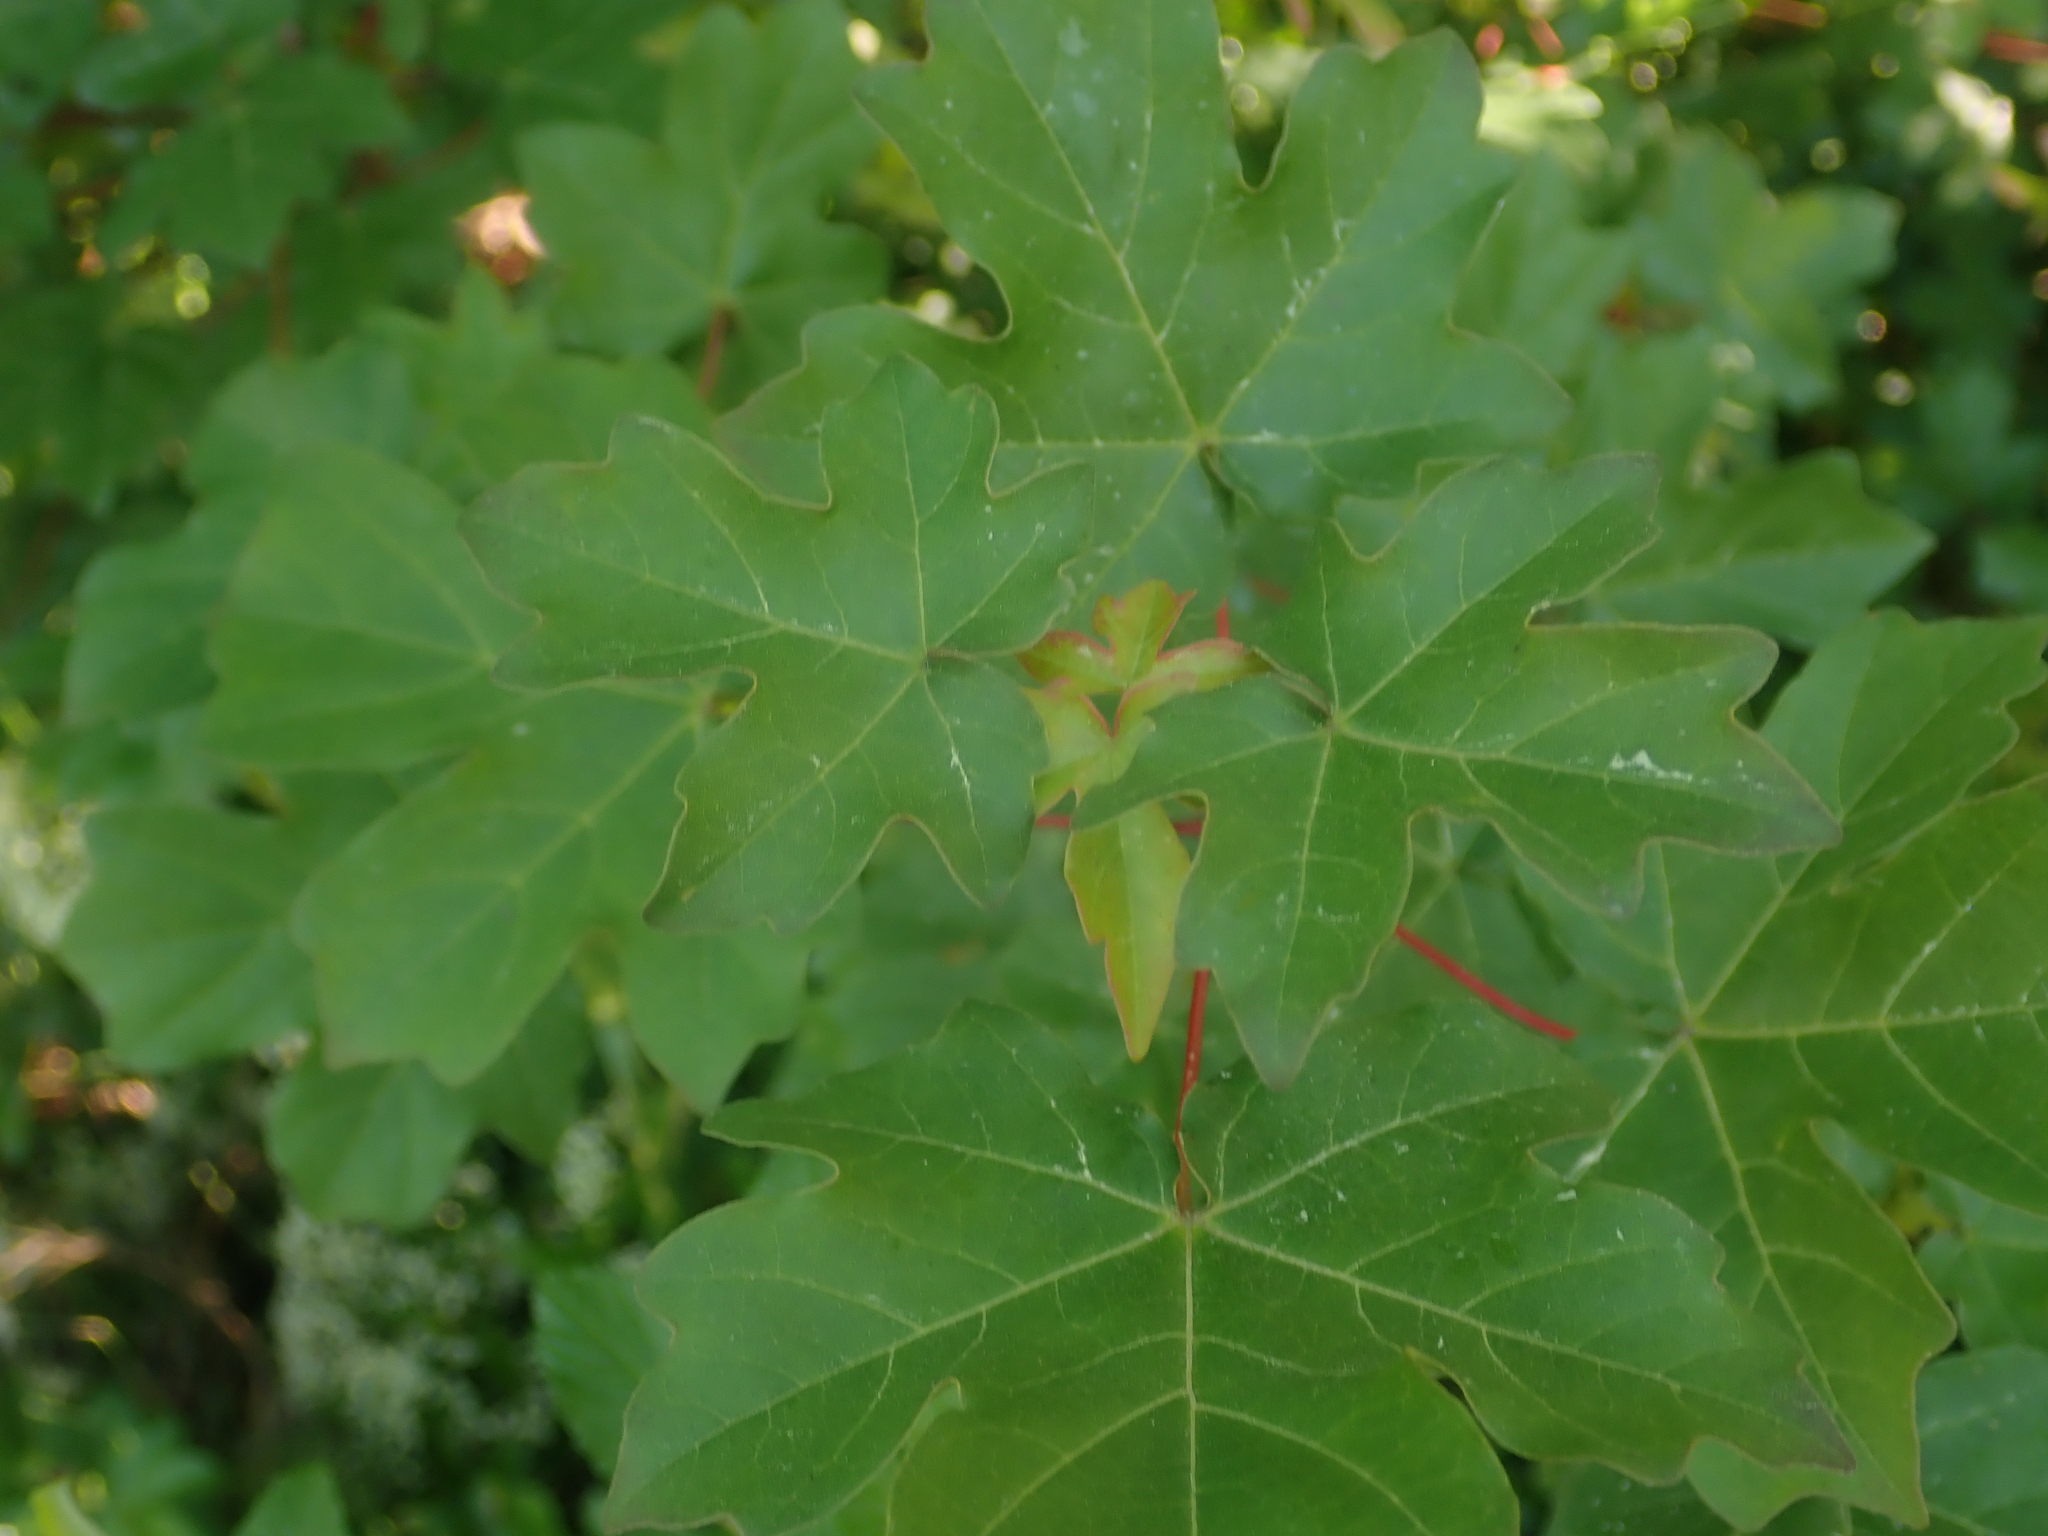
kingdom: Plantae
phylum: Tracheophyta
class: Magnoliopsida
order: Sapindales
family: Sapindaceae
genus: Acer
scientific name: Acer campestre
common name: Field maple
